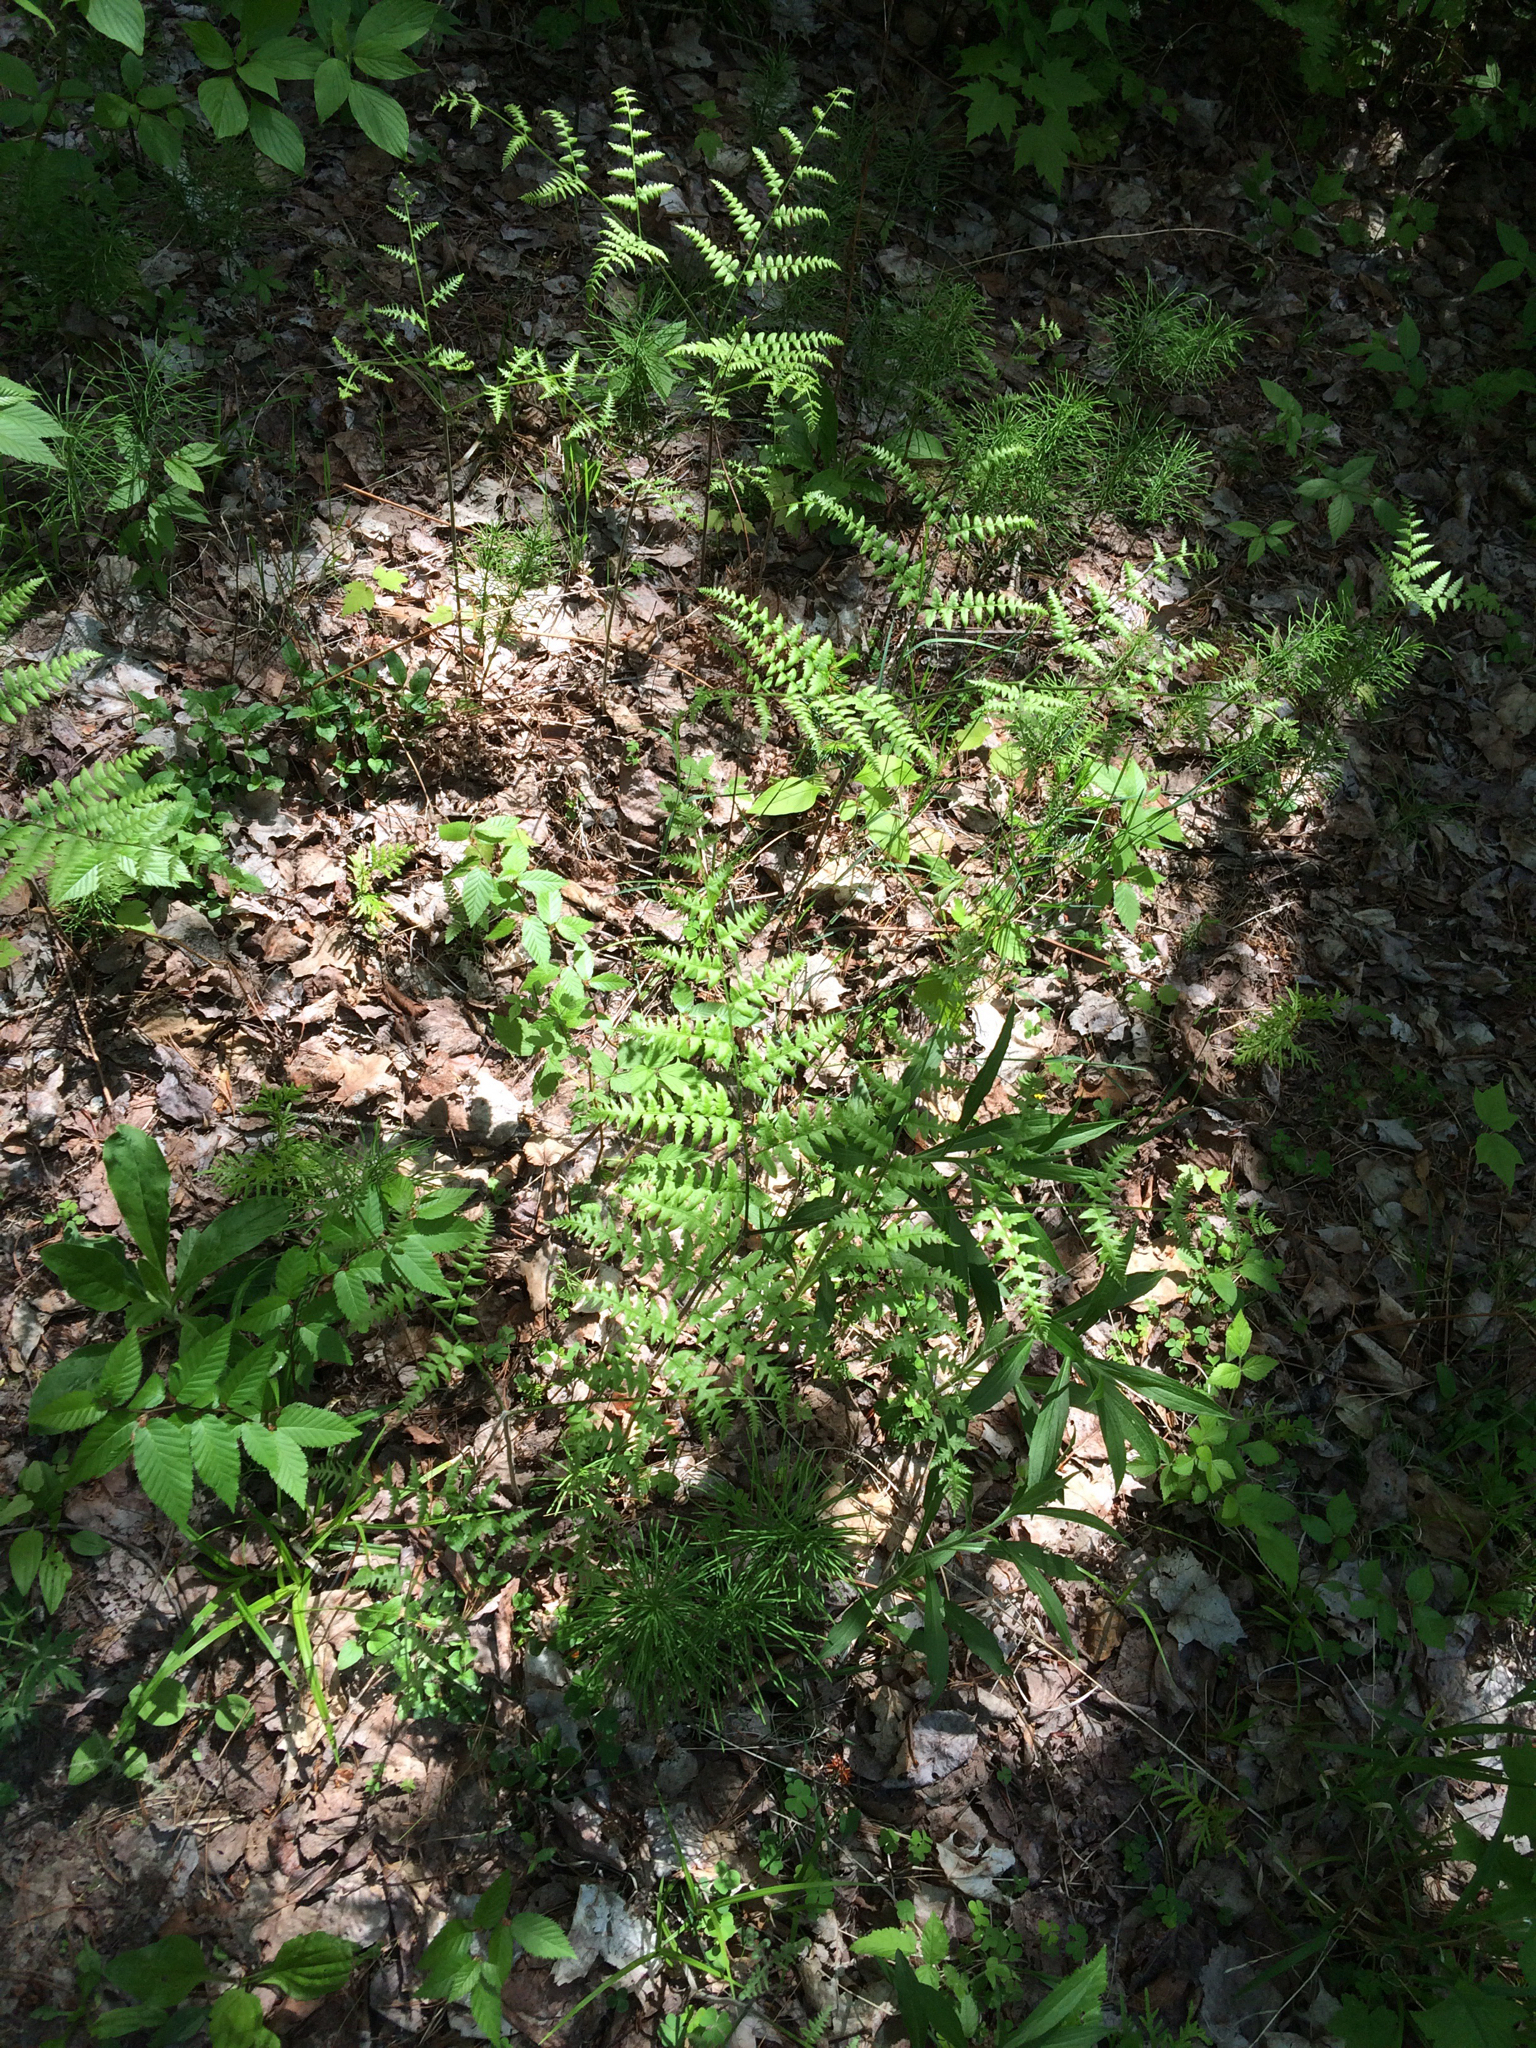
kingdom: Plantae
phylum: Tracheophyta
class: Polypodiopsida
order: Polypodiales
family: Dennstaedtiaceae
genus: Pteridium
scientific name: Pteridium aquilinum
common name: Bracken
